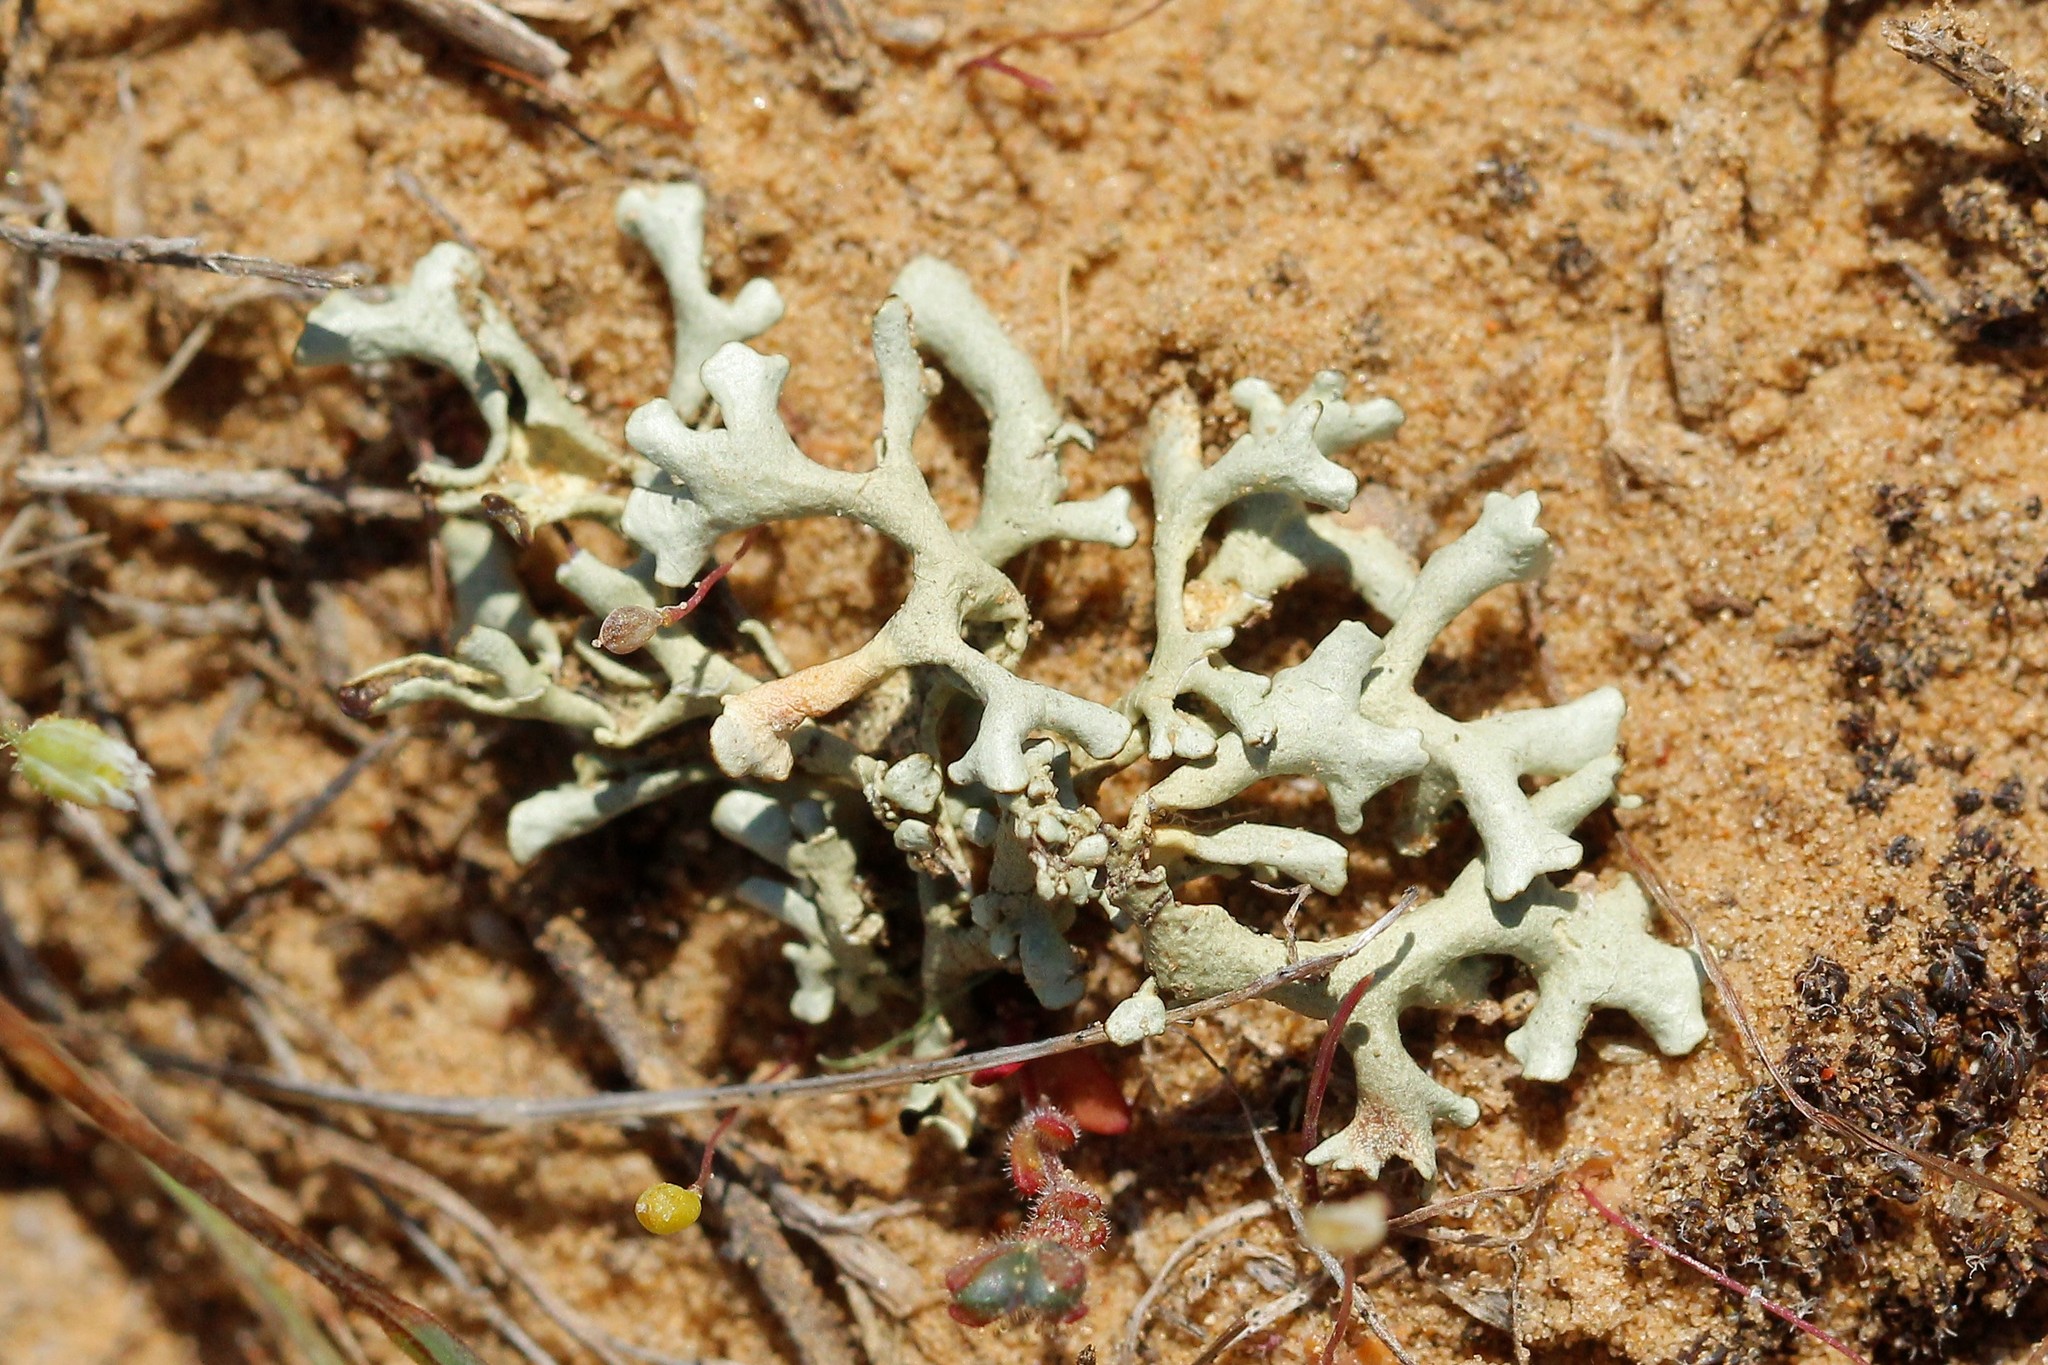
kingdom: Fungi
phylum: Ascomycota
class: Lecanoromycetes
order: Lecanorales
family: Parmeliaceae
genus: Hypogymnia
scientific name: Hypogymnia tubulosa
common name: Powder-headed tube lichen
